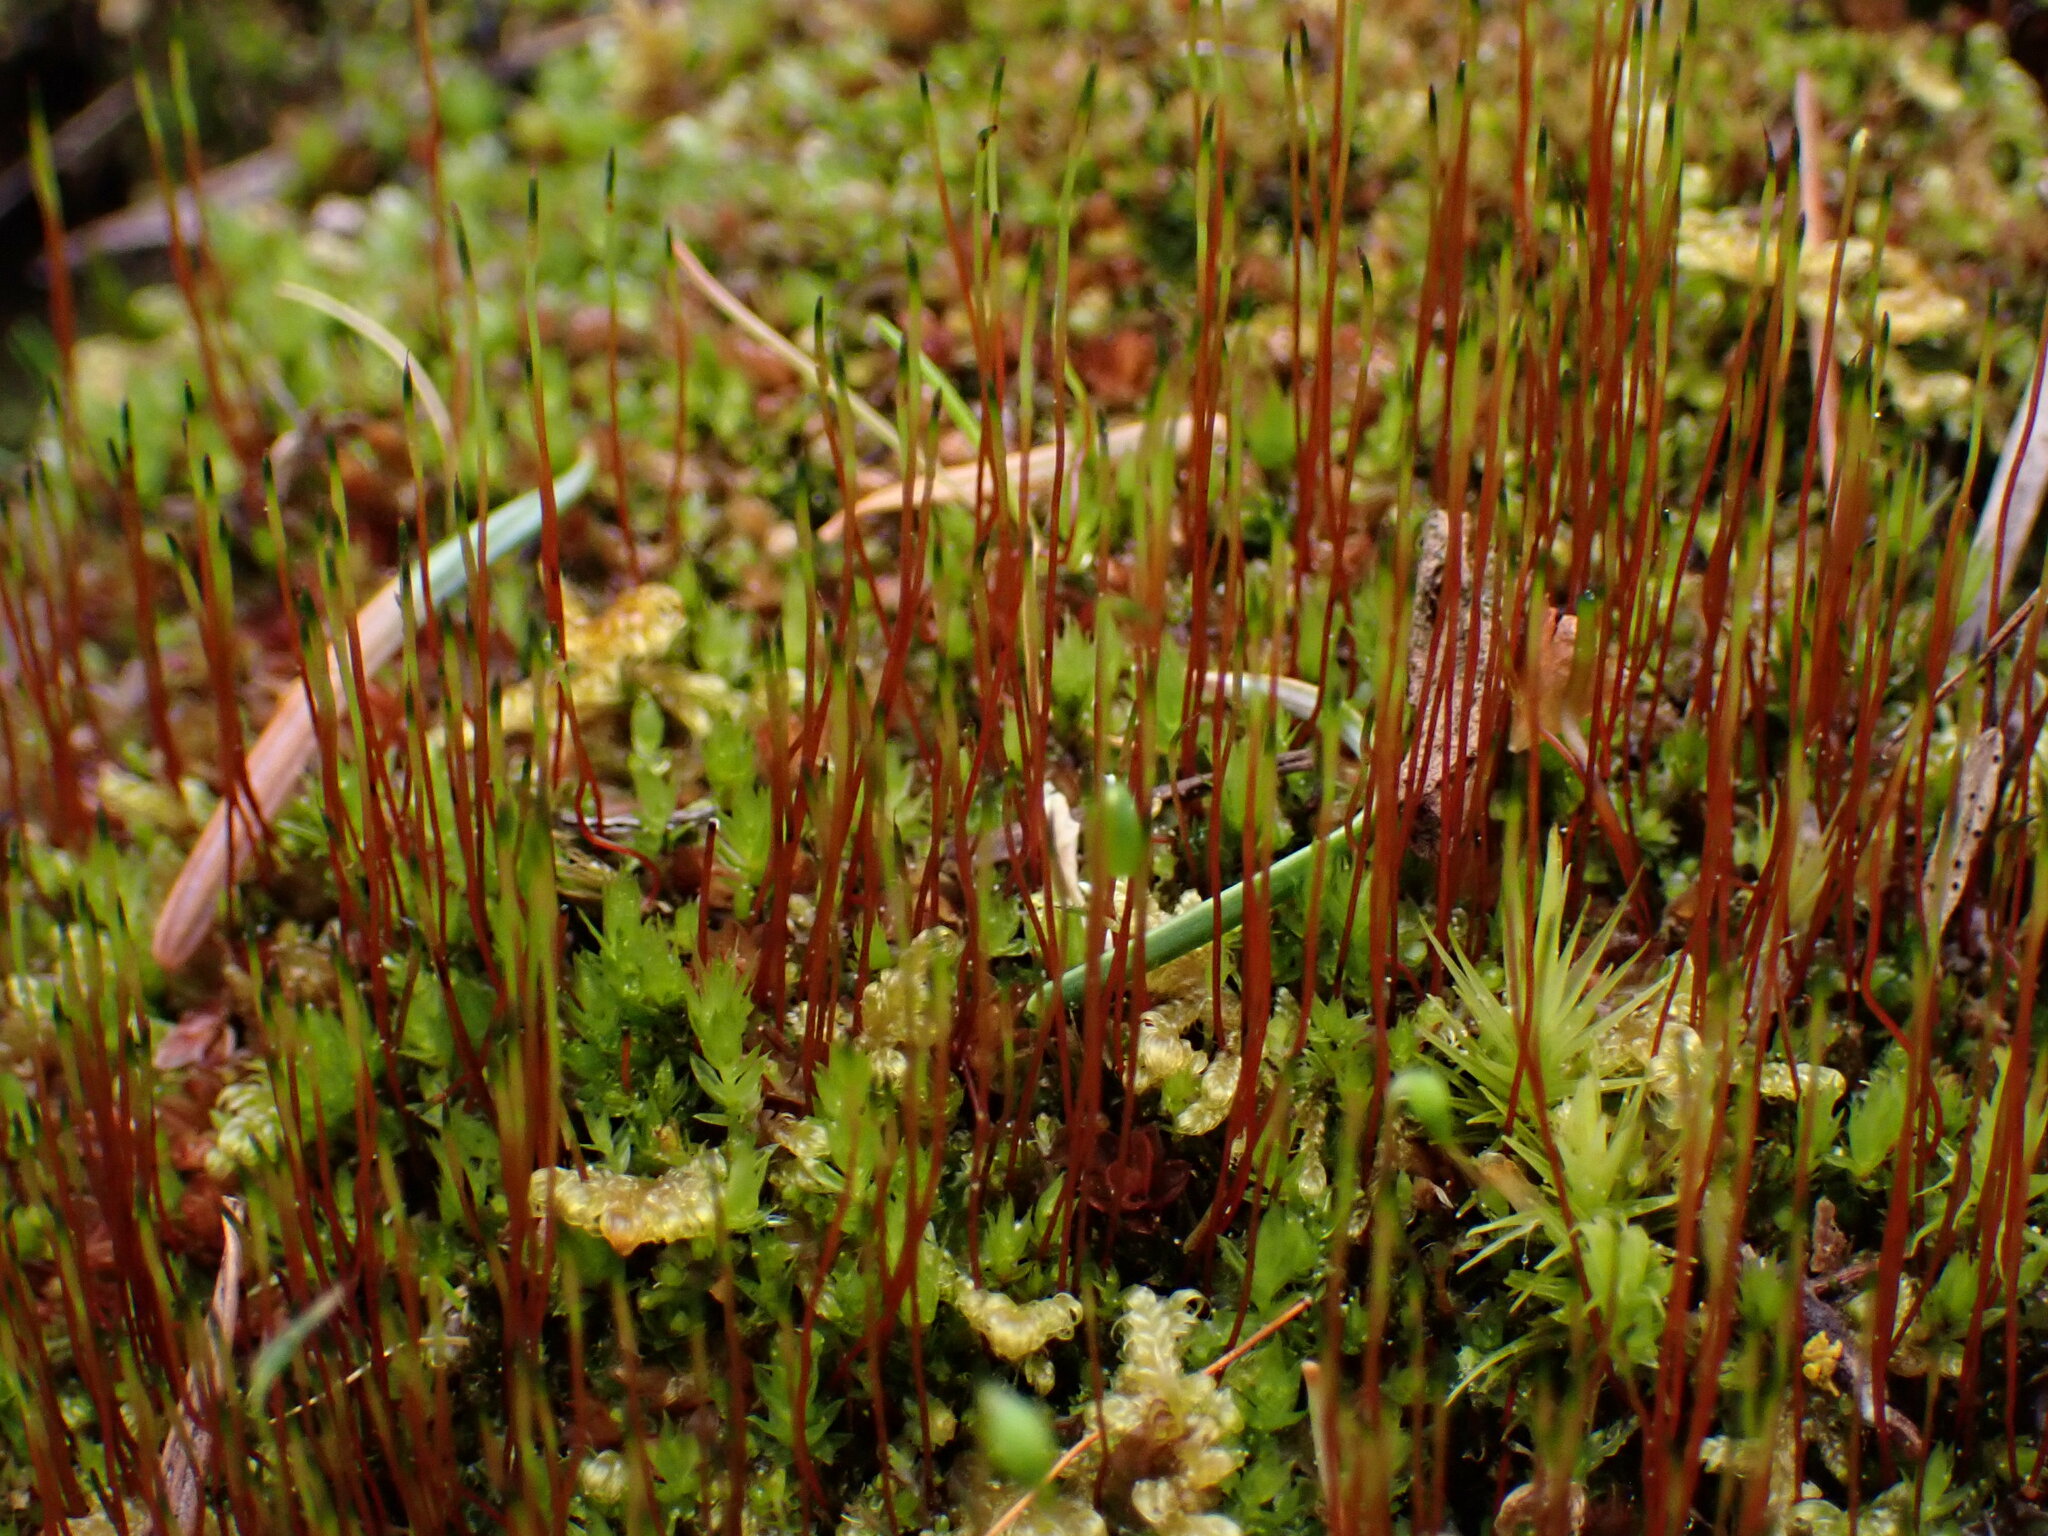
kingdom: Plantae
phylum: Bryophyta
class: Bryopsida
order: Dicranales
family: Ditrichaceae
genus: Ceratodon
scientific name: Ceratodon purpureus
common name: Redshank
